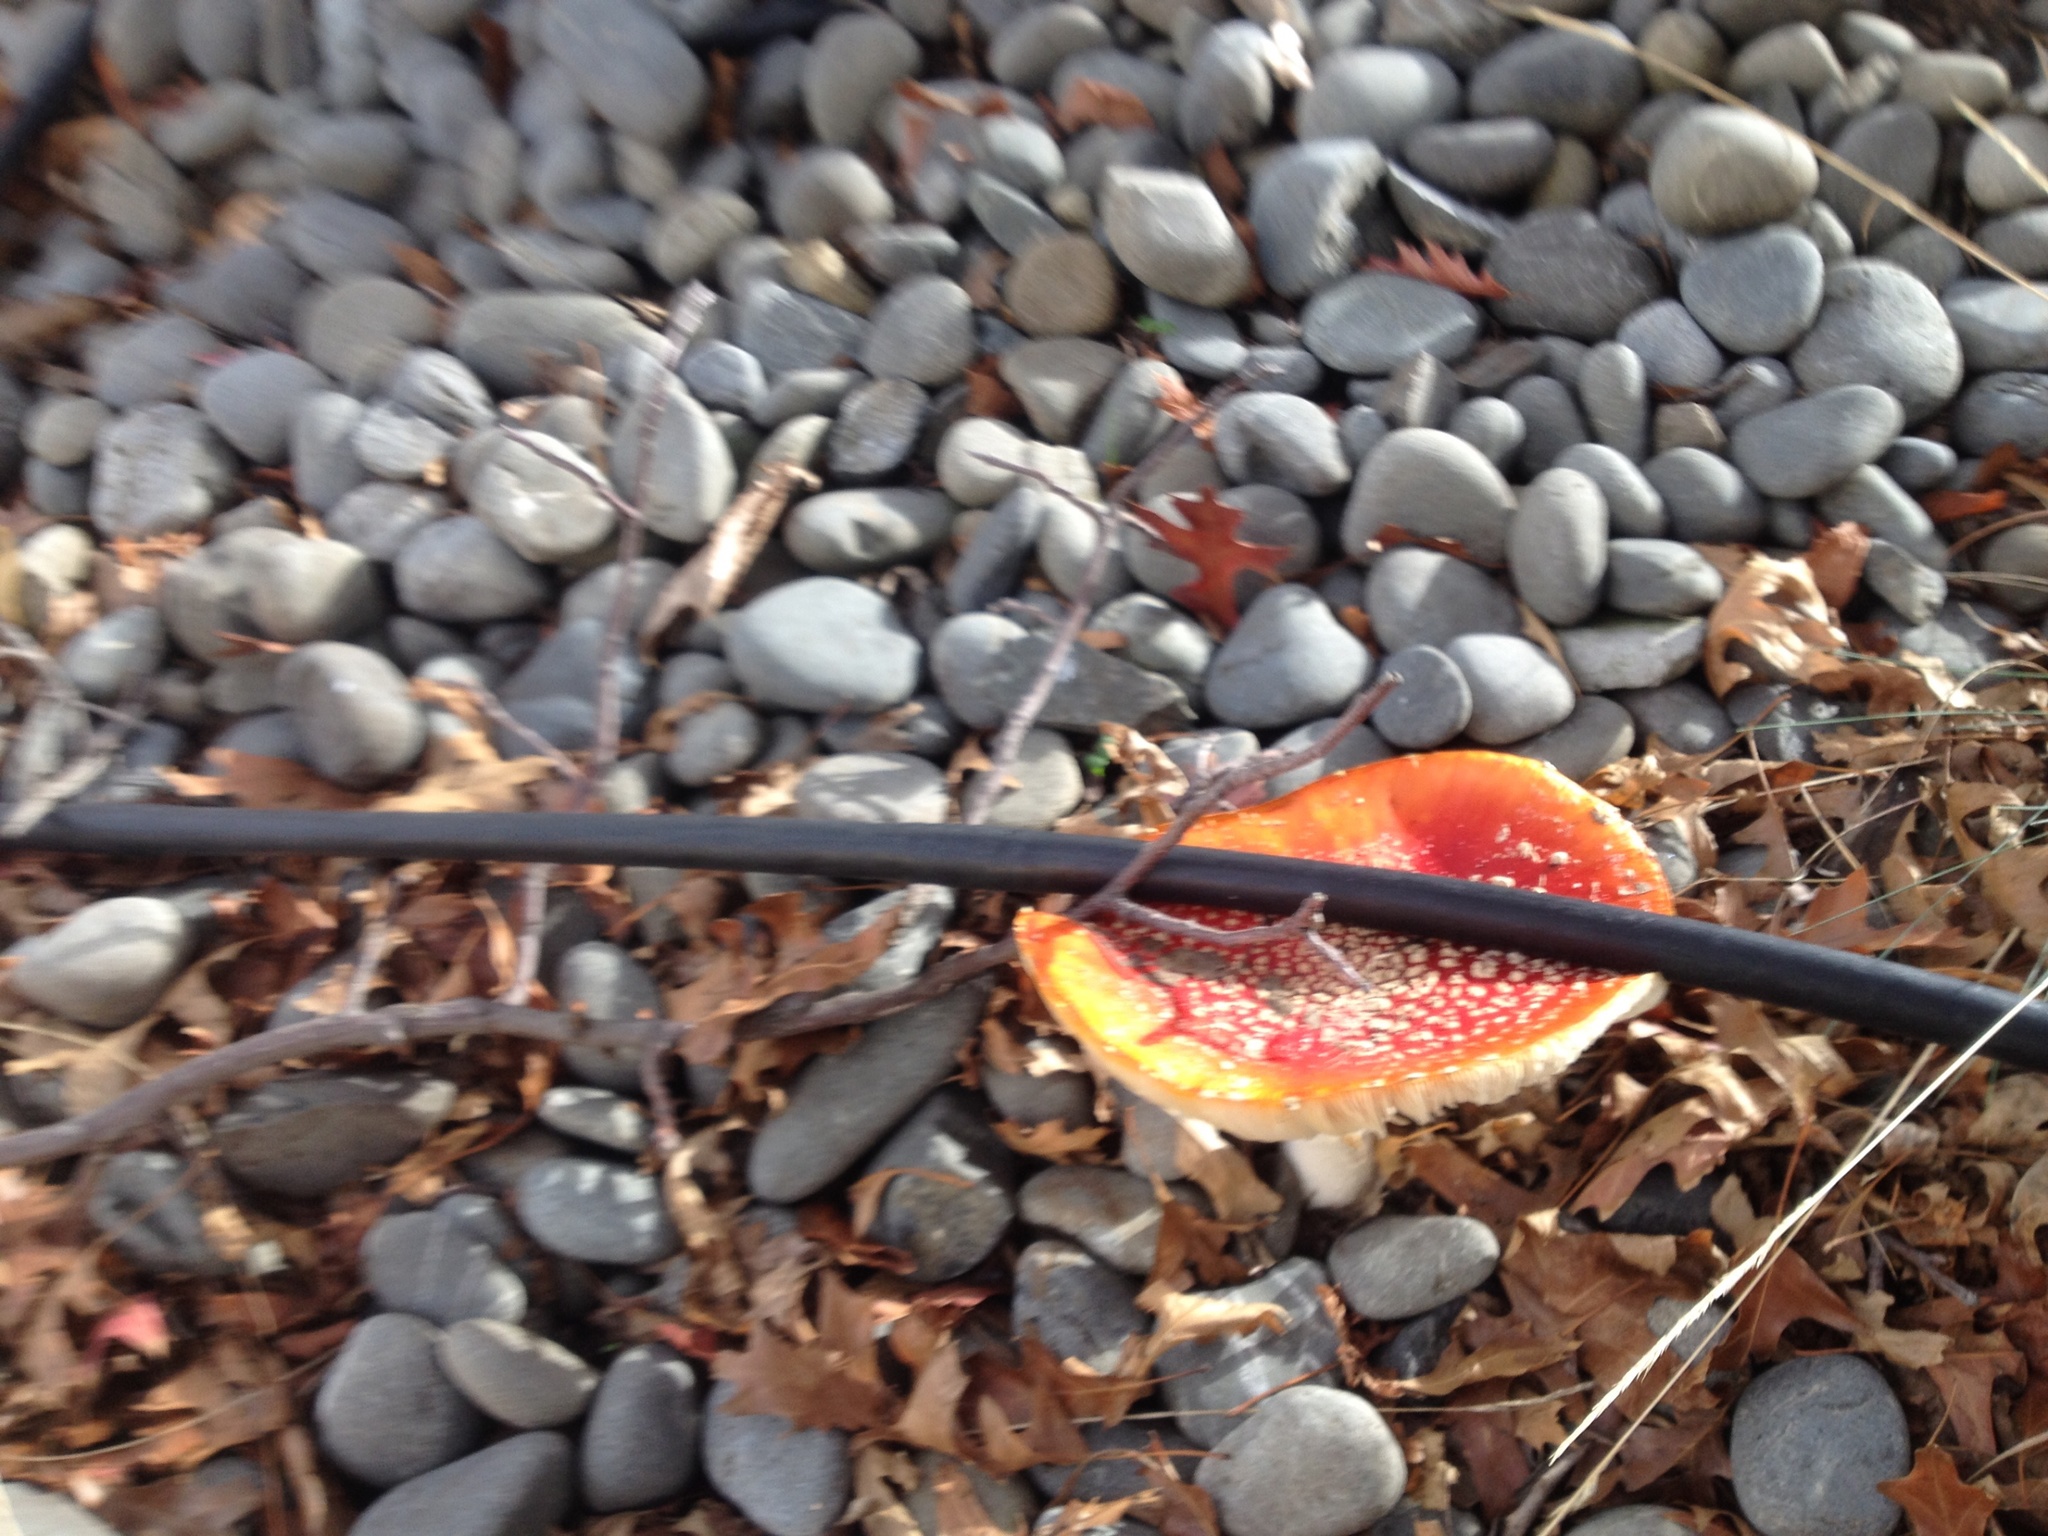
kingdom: Fungi
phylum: Basidiomycota
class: Agaricomycetes
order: Agaricales
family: Amanitaceae
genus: Amanita
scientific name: Amanita muscaria
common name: Fly agaric
